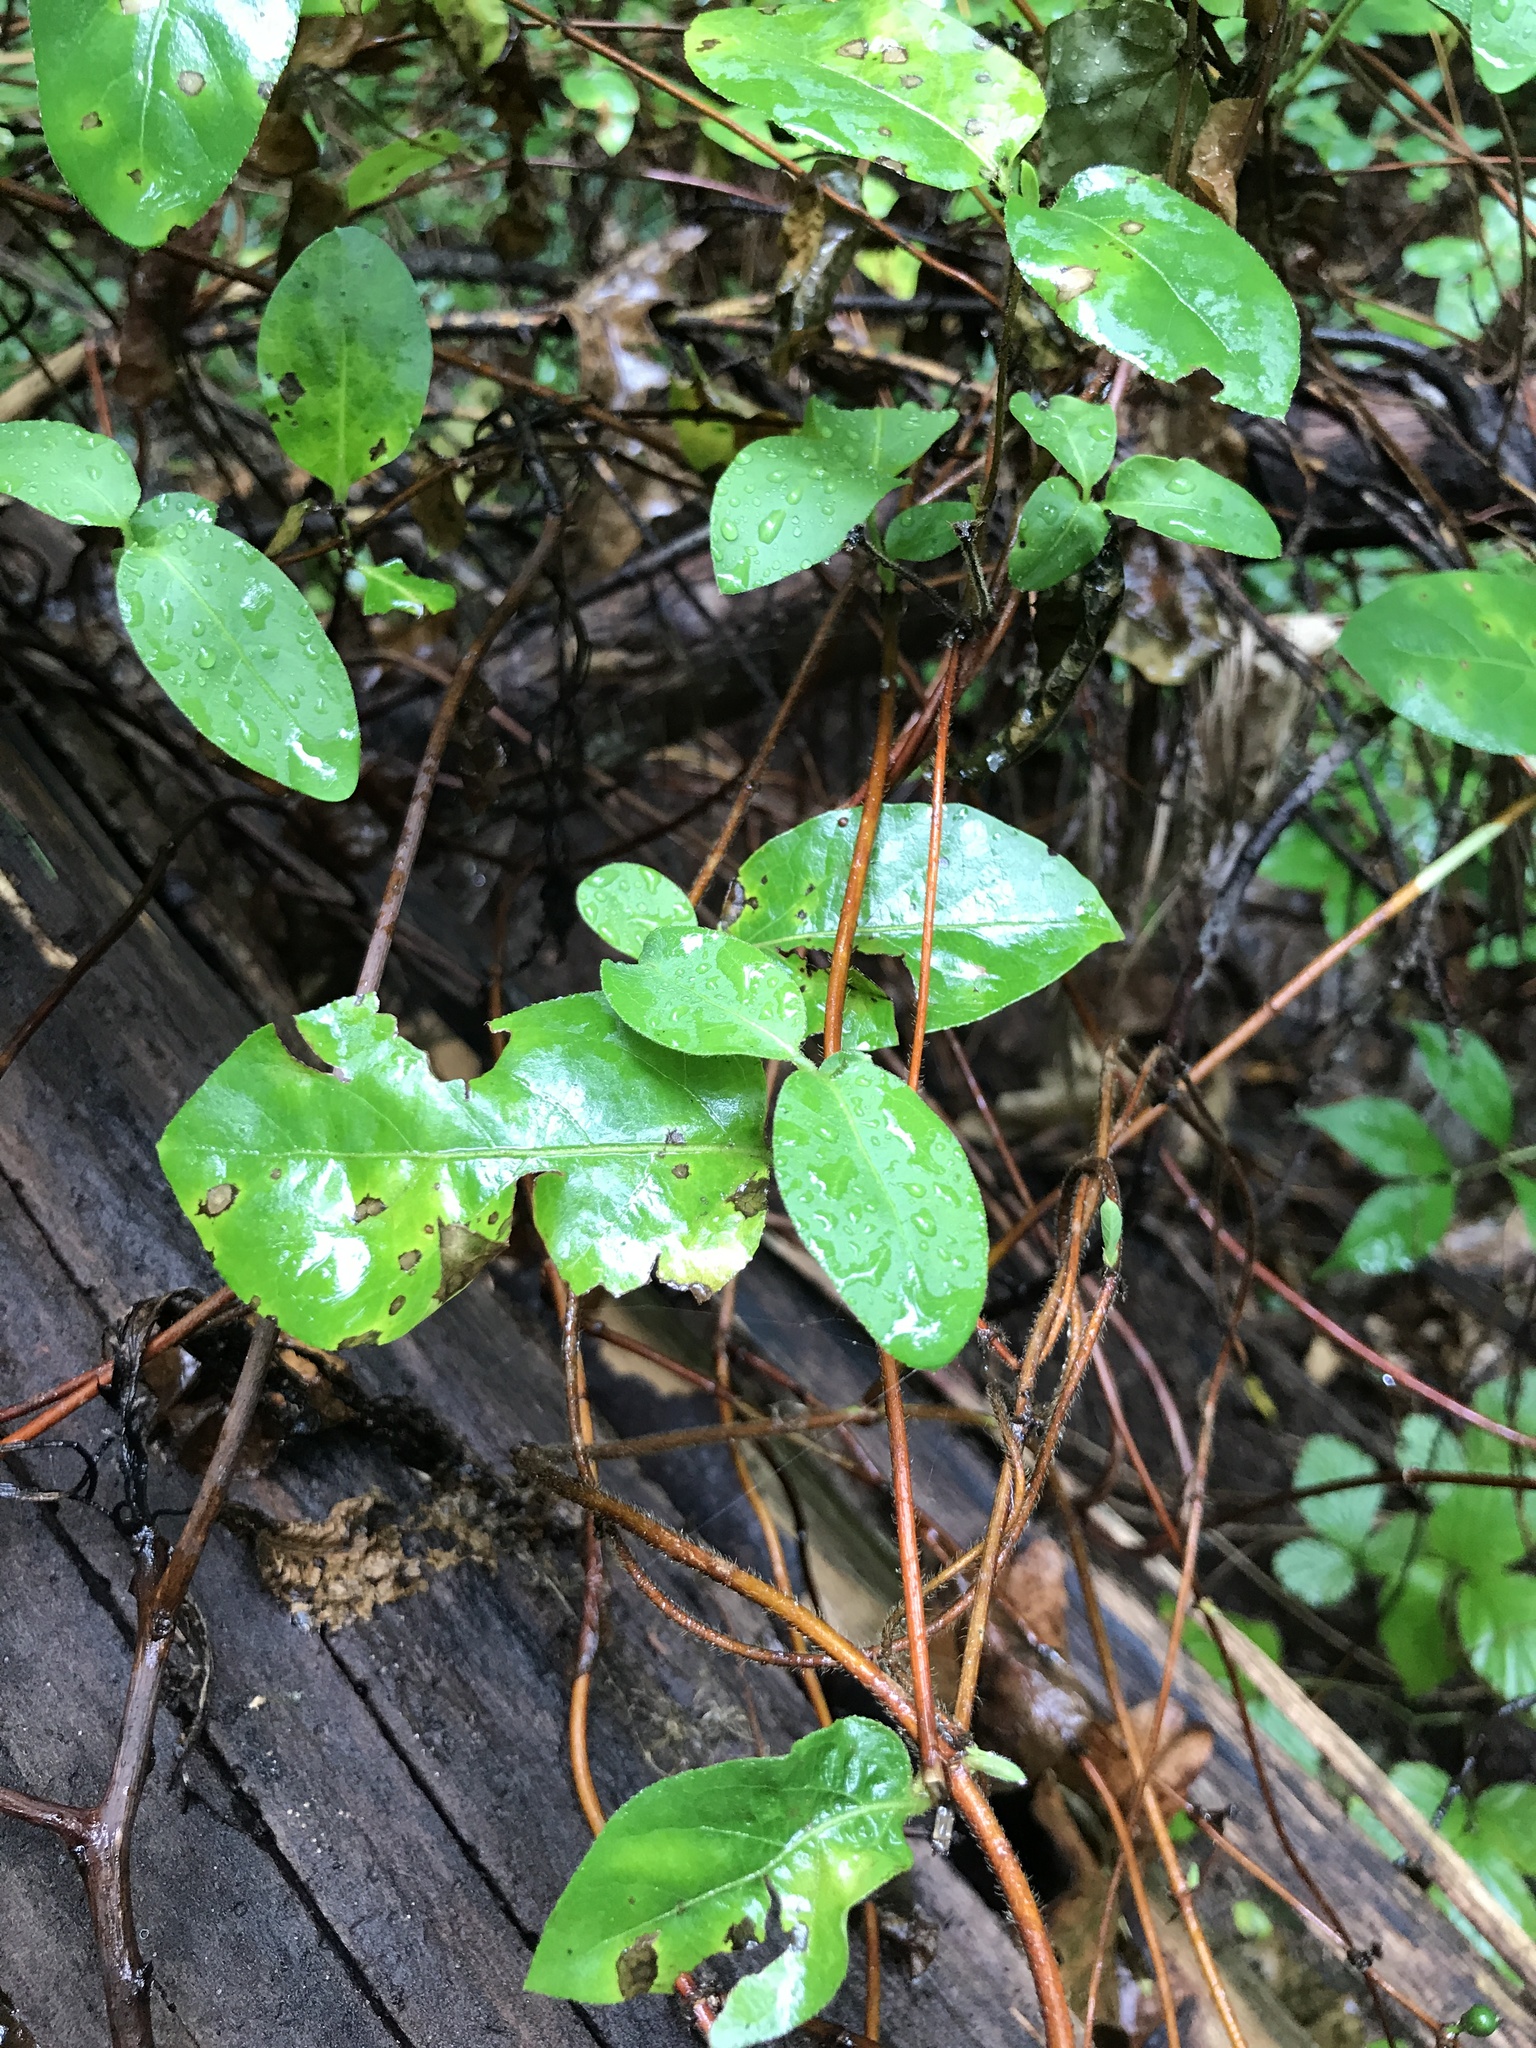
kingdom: Plantae
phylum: Tracheophyta
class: Magnoliopsida
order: Dipsacales
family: Caprifoliaceae
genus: Lonicera
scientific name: Lonicera japonica
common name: Japanese honeysuckle
